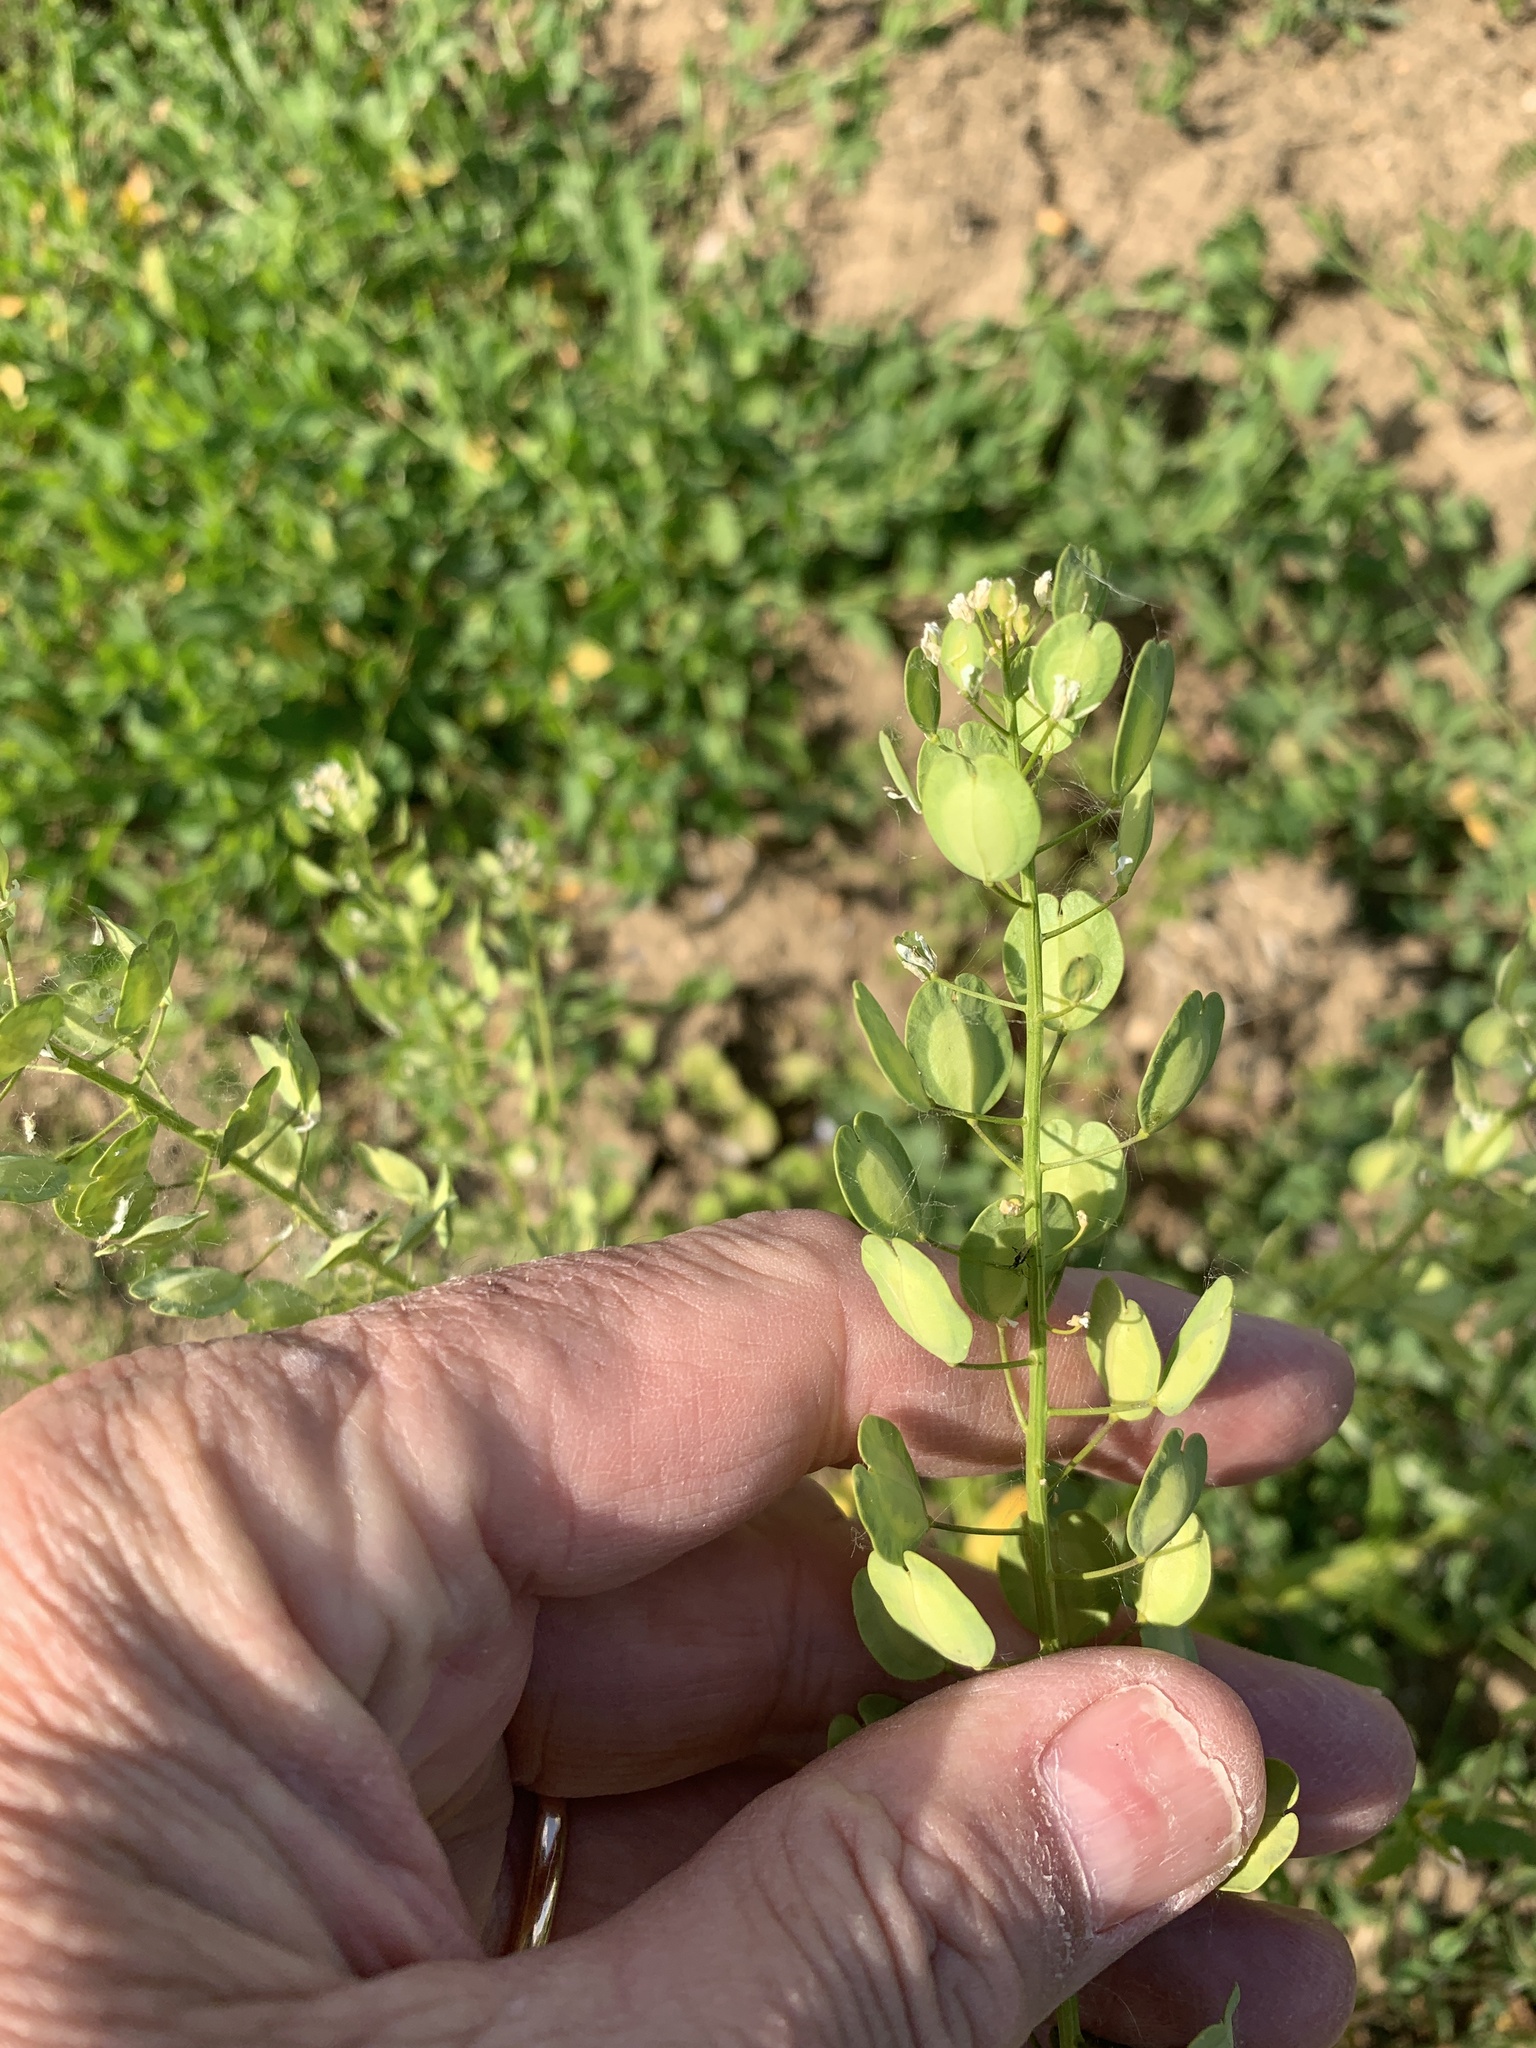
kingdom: Plantae
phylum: Tracheophyta
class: Magnoliopsida
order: Brassicales
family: Brassicaceae
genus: Thlaspi
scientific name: Thlaspi arvense
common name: Field pennycress
